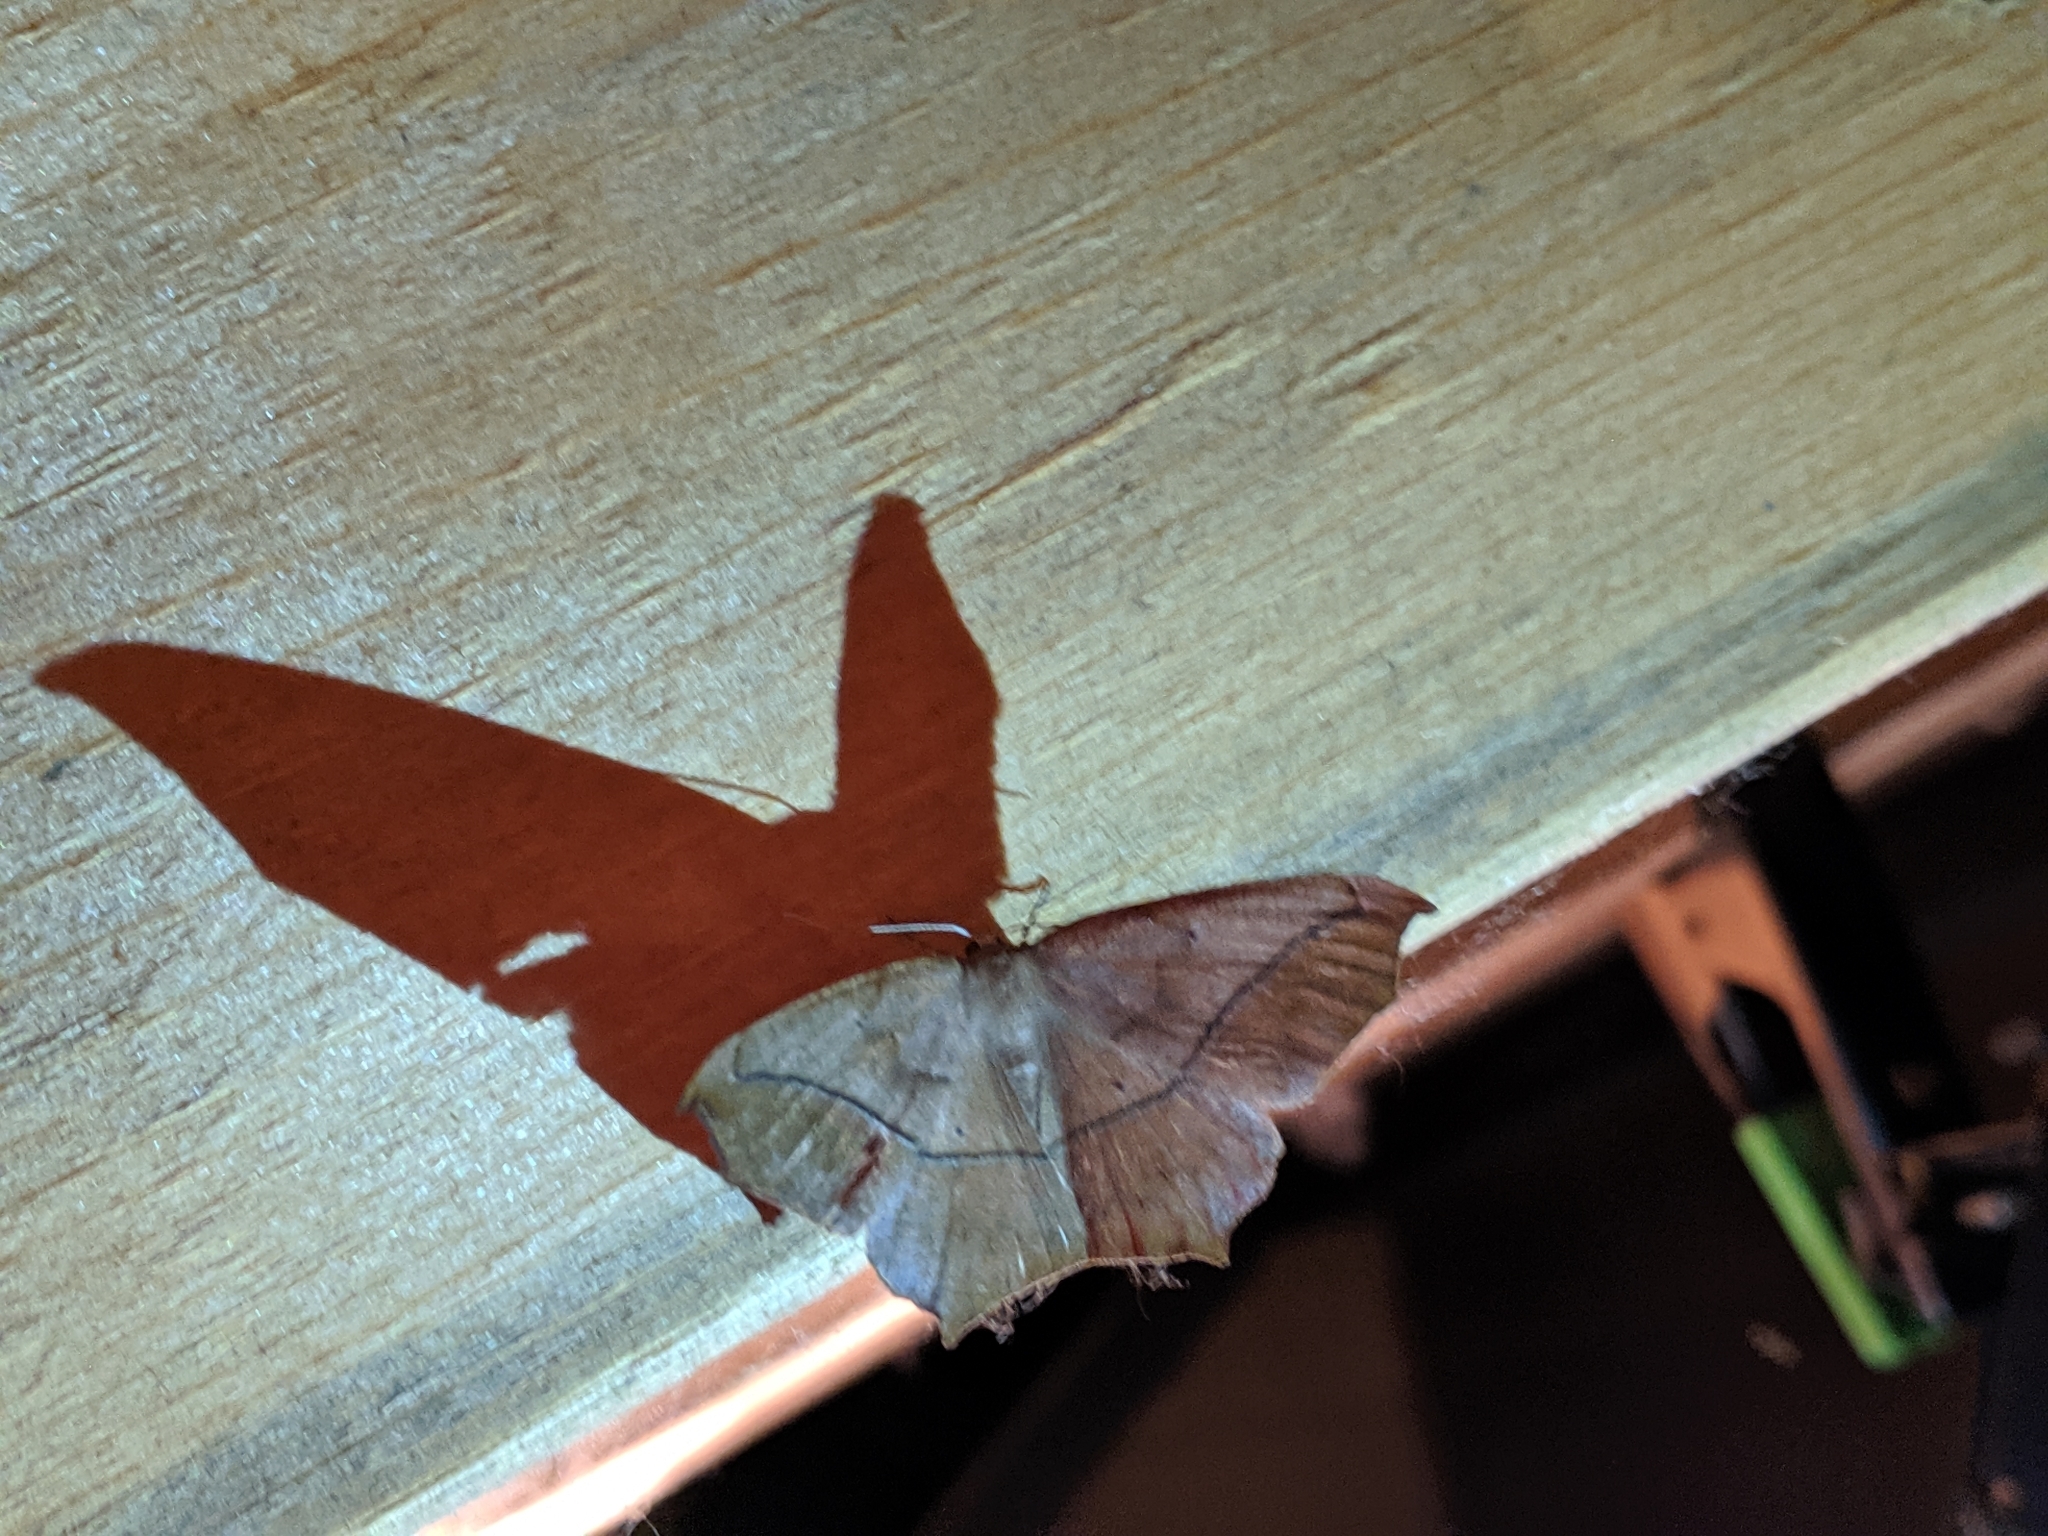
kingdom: Animalia
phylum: Arthropoda
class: Insecta
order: Lepidoptera
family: Geometridae
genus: Prochoerodes
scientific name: Prochoerodes lineola
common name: Large maple spanworm
